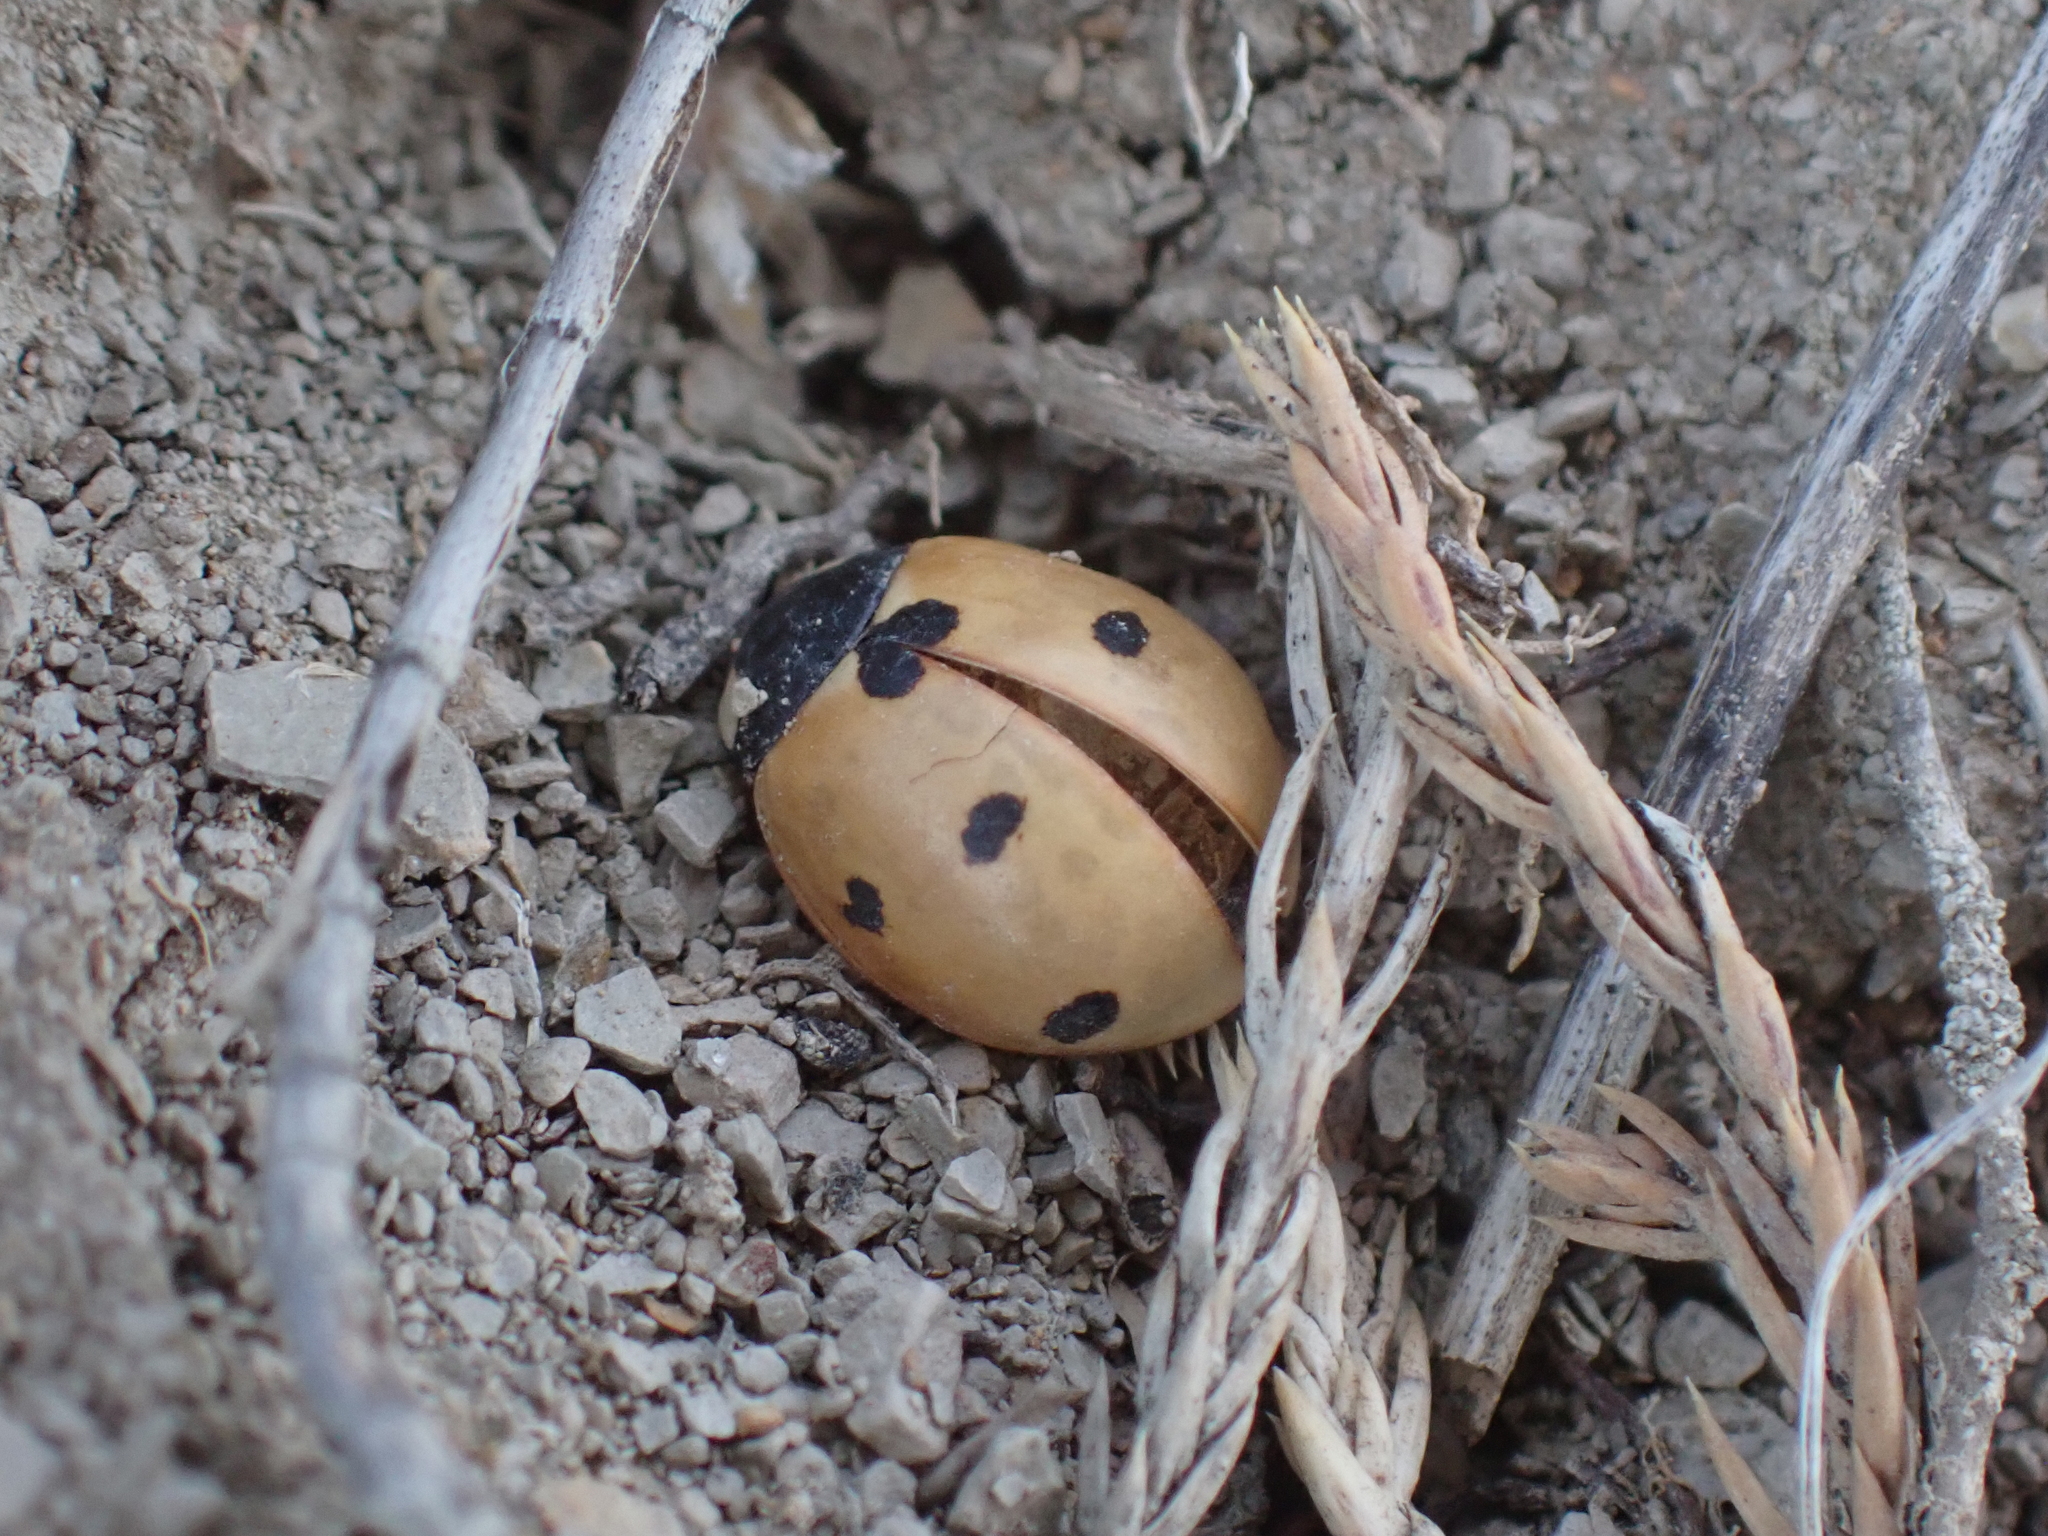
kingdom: Animalia
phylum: Arthropoda
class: Insecta
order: Coleoptera
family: Coccinellidae
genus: Coccinella
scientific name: Coccinella septempunctata
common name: Sevenspotted lady beetle
